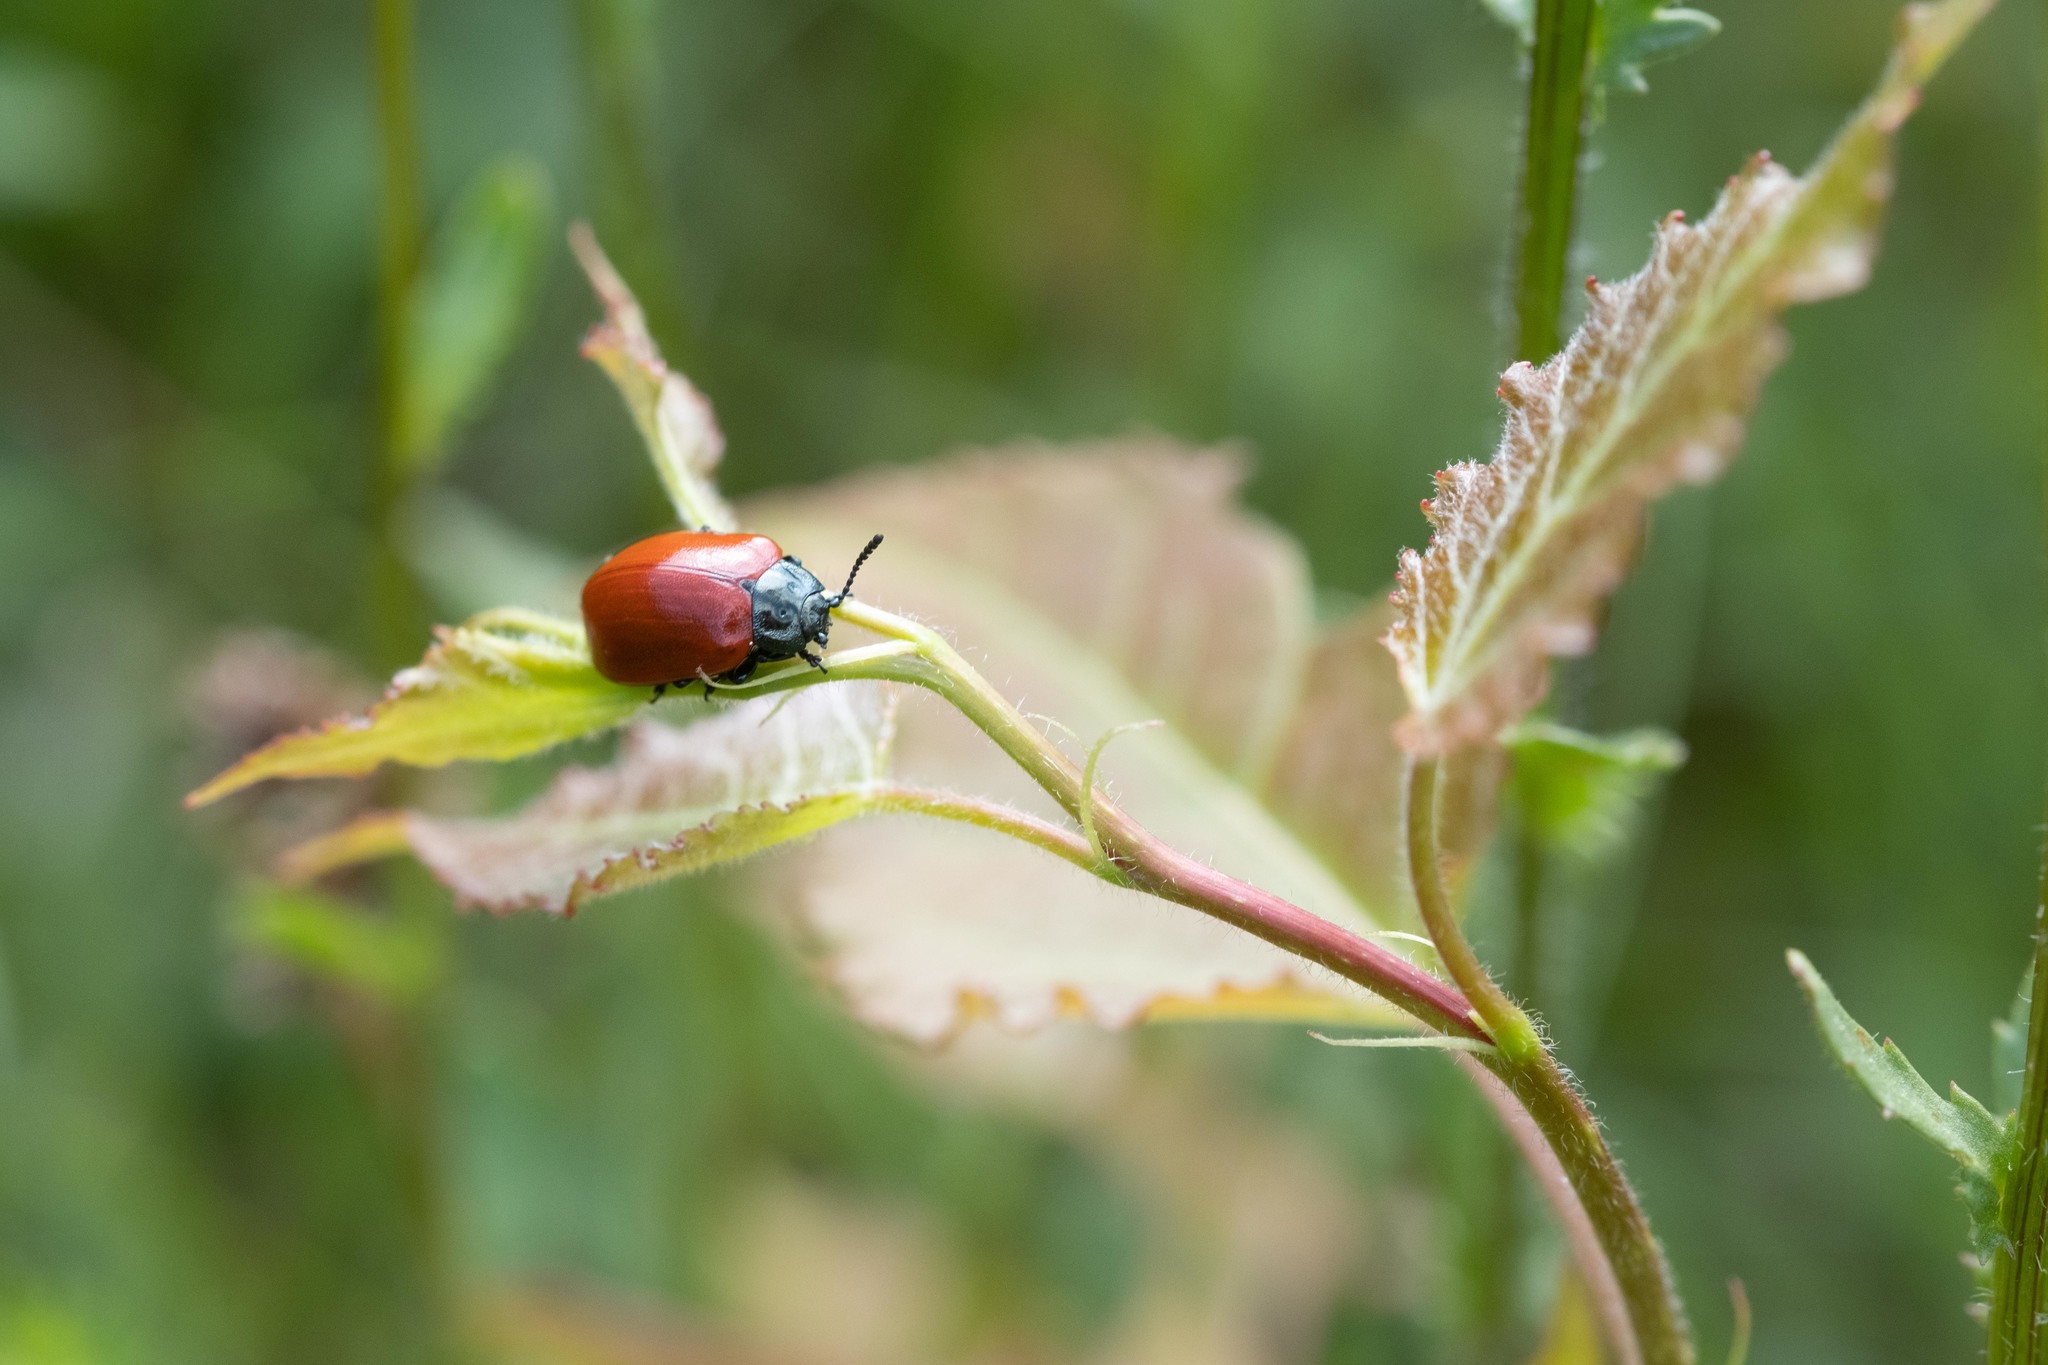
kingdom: Animalia
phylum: Arthropoda
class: Insecta
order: Coleoptera
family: Chrysomelidae
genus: Chrysomela
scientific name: Chrysomela populi
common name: Red poplar leaf beetle
